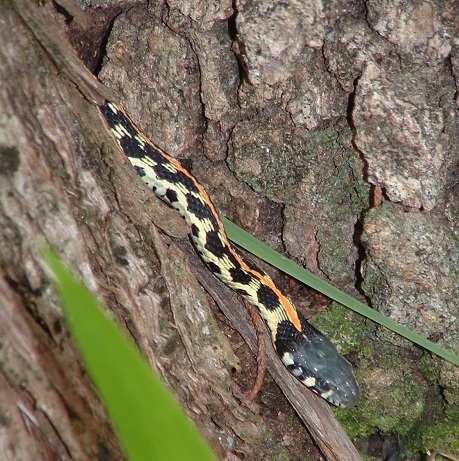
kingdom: Animalia
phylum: Chordata
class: Squamata
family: Colubridae
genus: Thamnophis
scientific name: Thamnophis cyrtopsis
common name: Black-necked gartersnake
